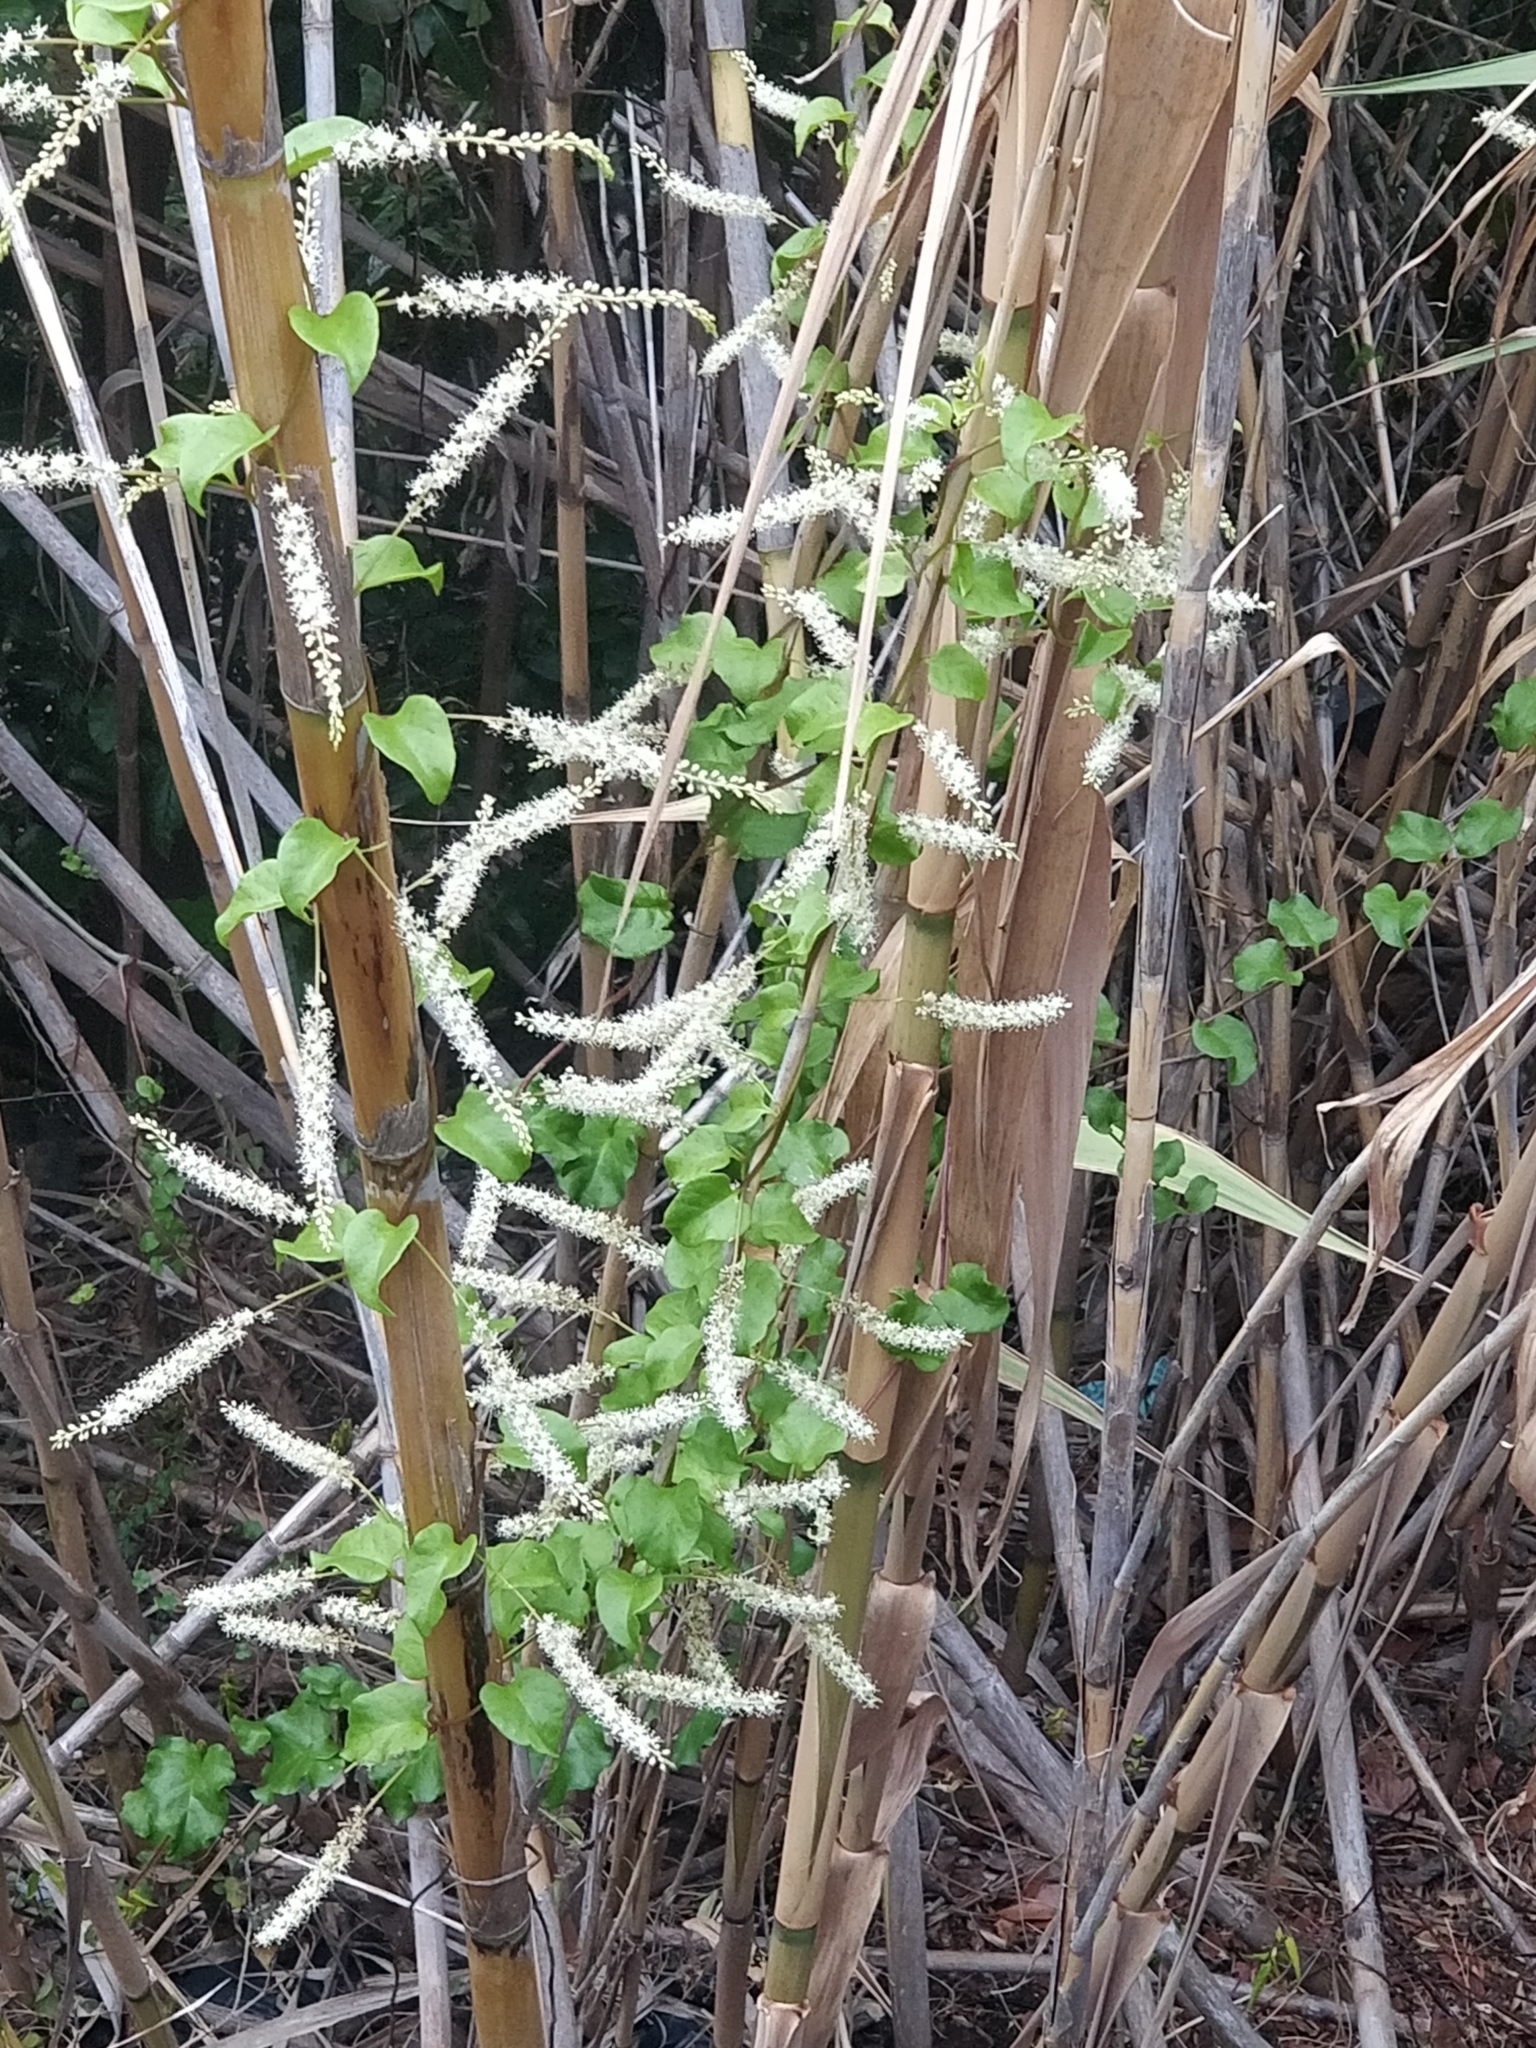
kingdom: Plantae
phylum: Tracheophyta
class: Magnoliopsida
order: Caryophyllales
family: Basellaceae
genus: Anredera
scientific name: Anredera cordifolia
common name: Heartleaf madeiravine
